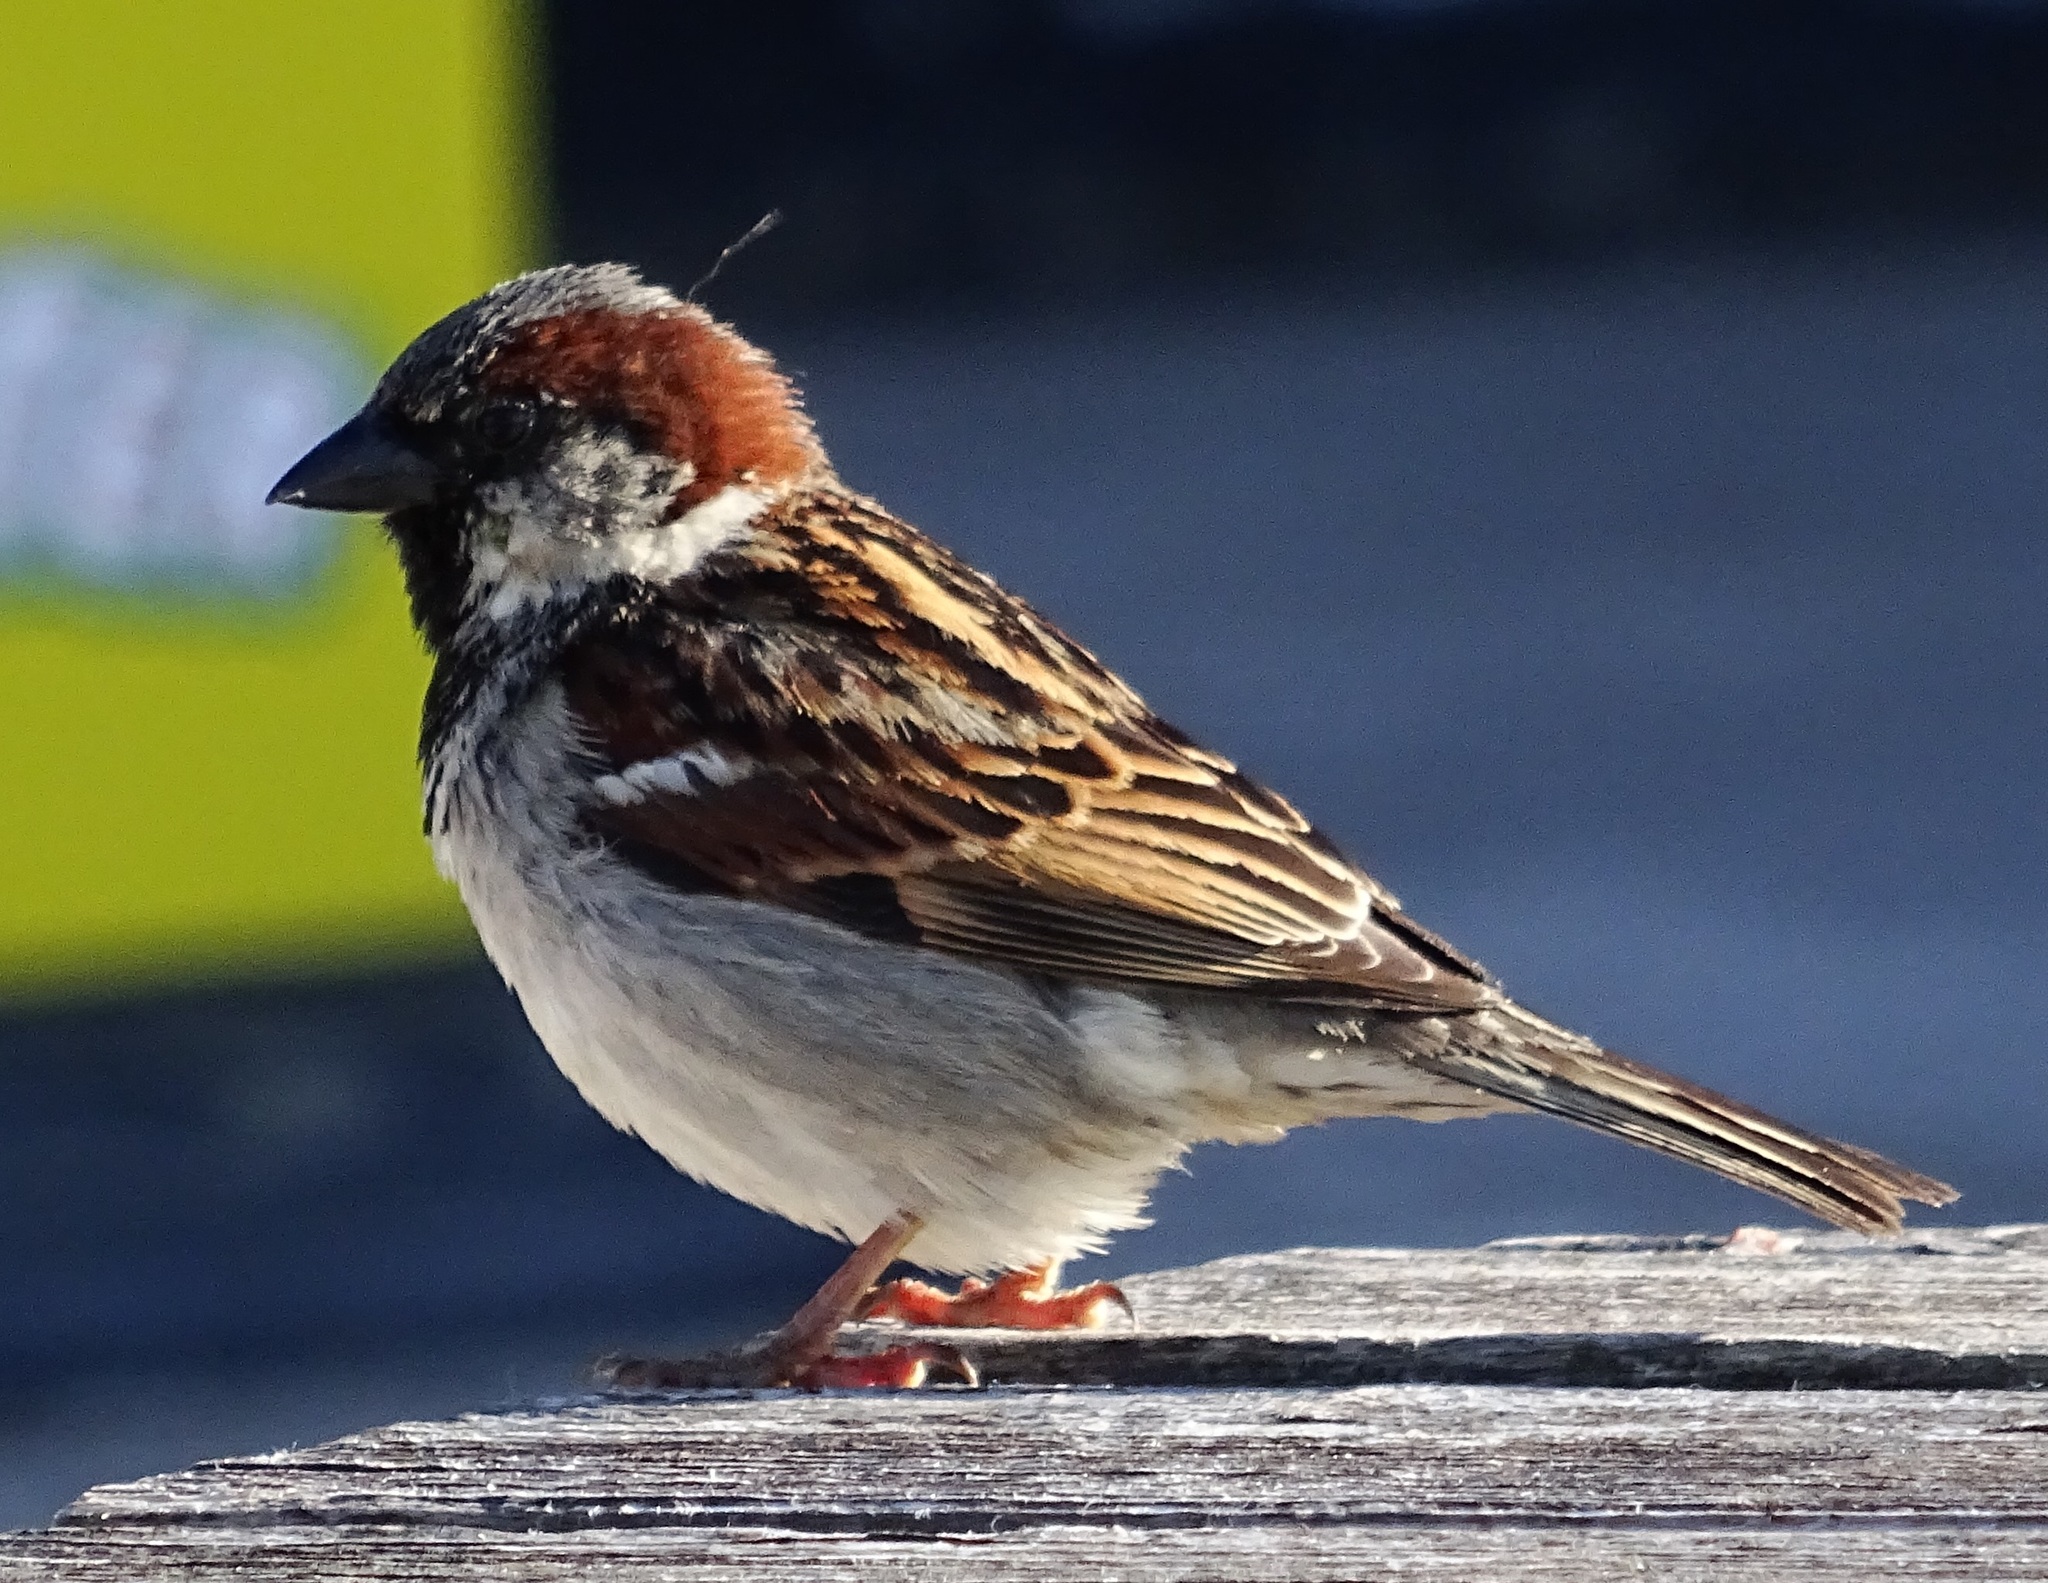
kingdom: Animalia
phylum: Chordata
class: Aves
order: Passeriformes
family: Passeridae
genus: Passer
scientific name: Passer domesticus
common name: House sparrow
